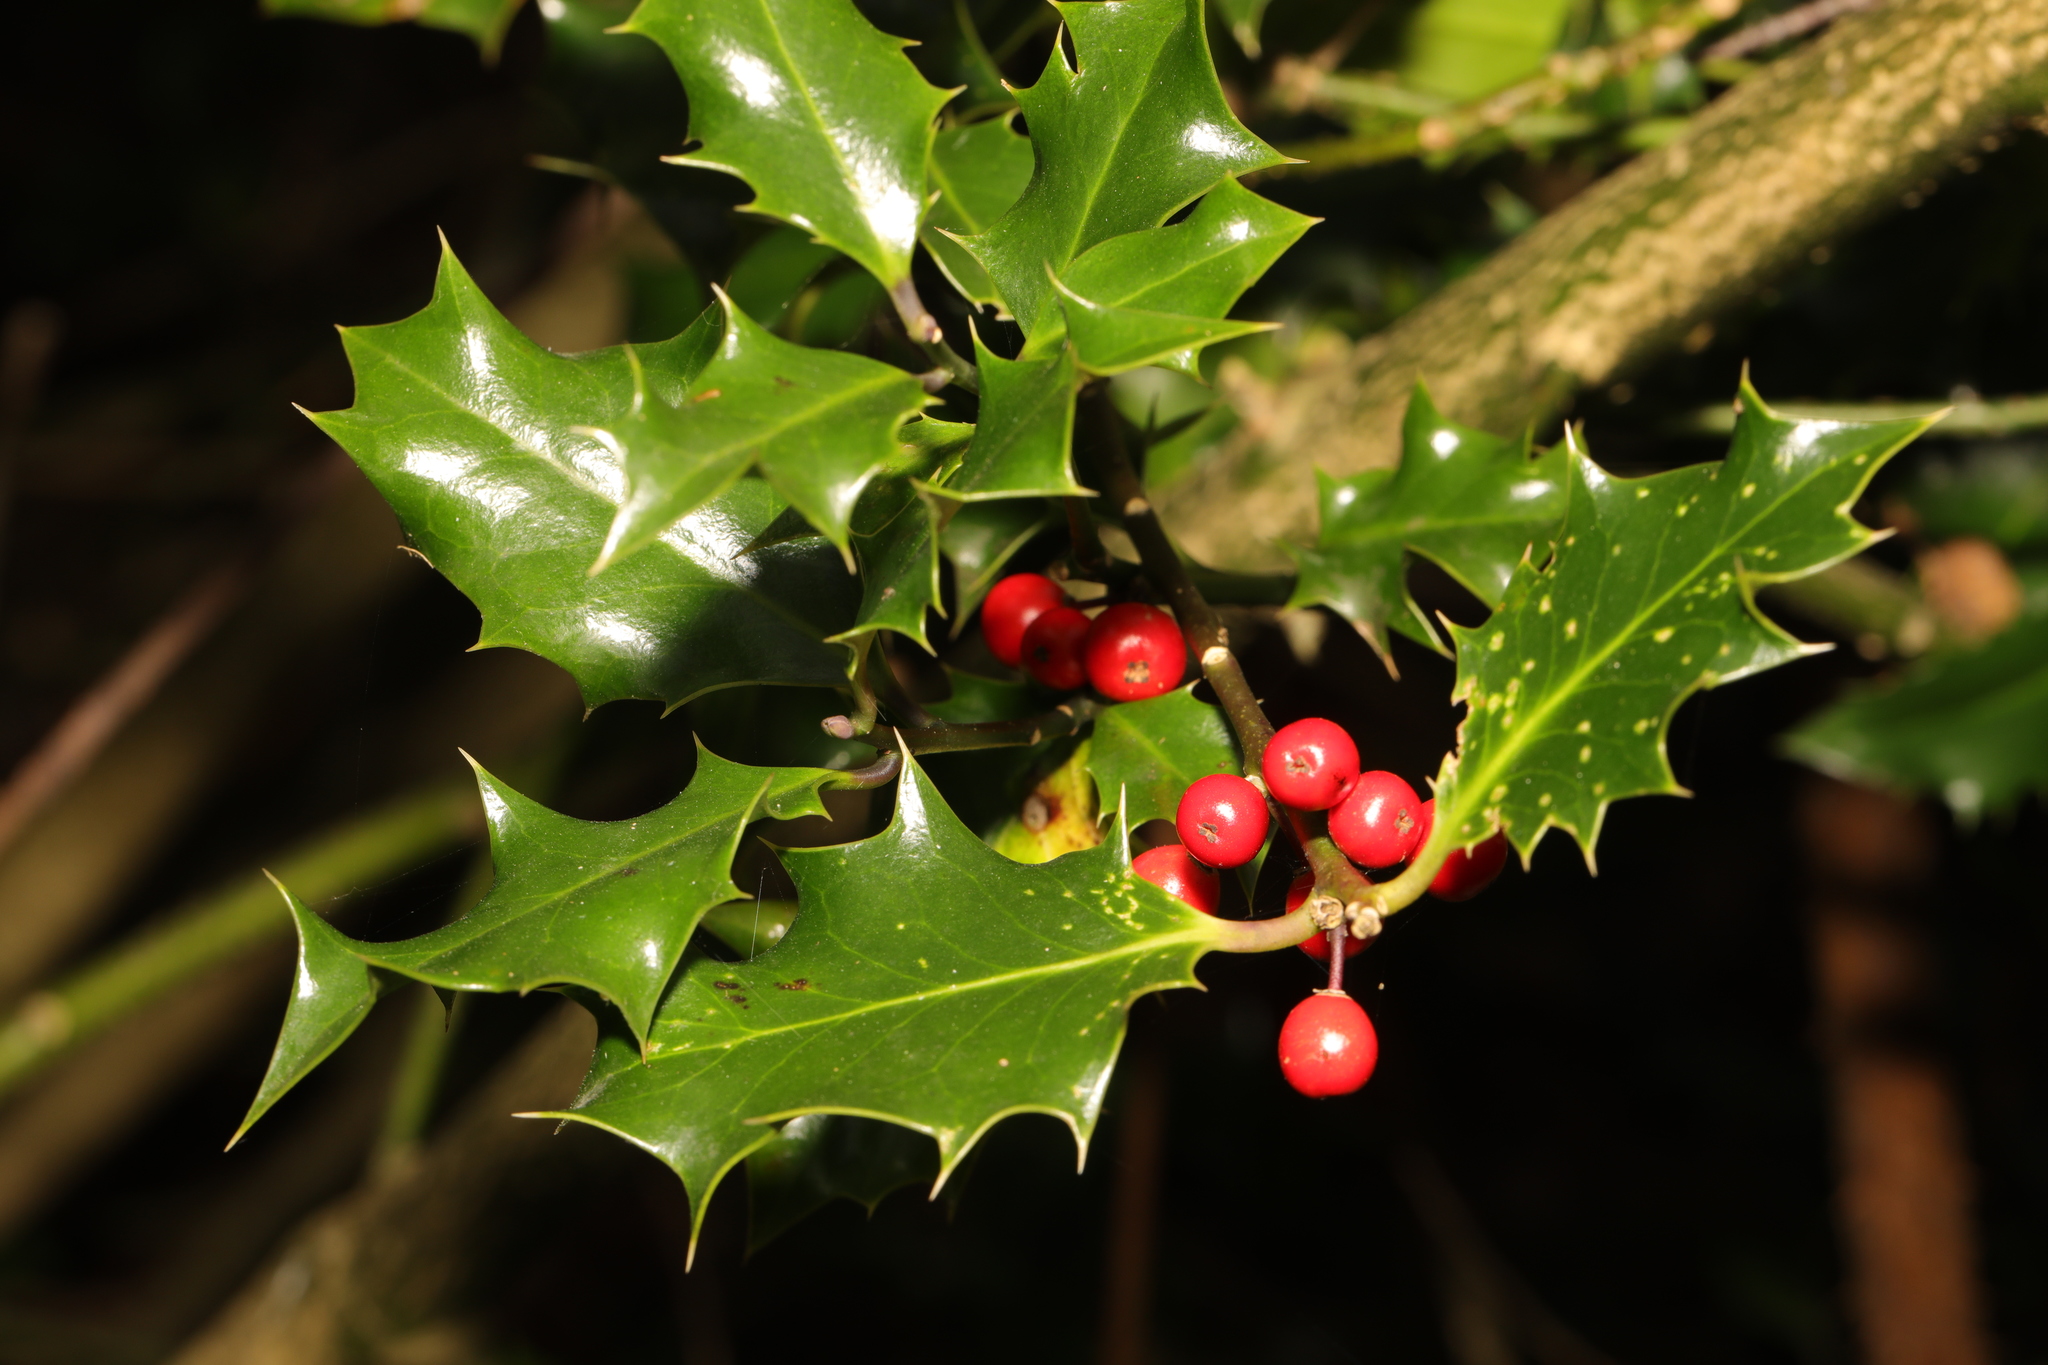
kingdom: Plantae
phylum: Tracheophyta
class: Magnoliopsida
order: Aquifoliales
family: Aquifoliaceae
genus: Ilex
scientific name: Ilex aquifolium
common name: English holly
